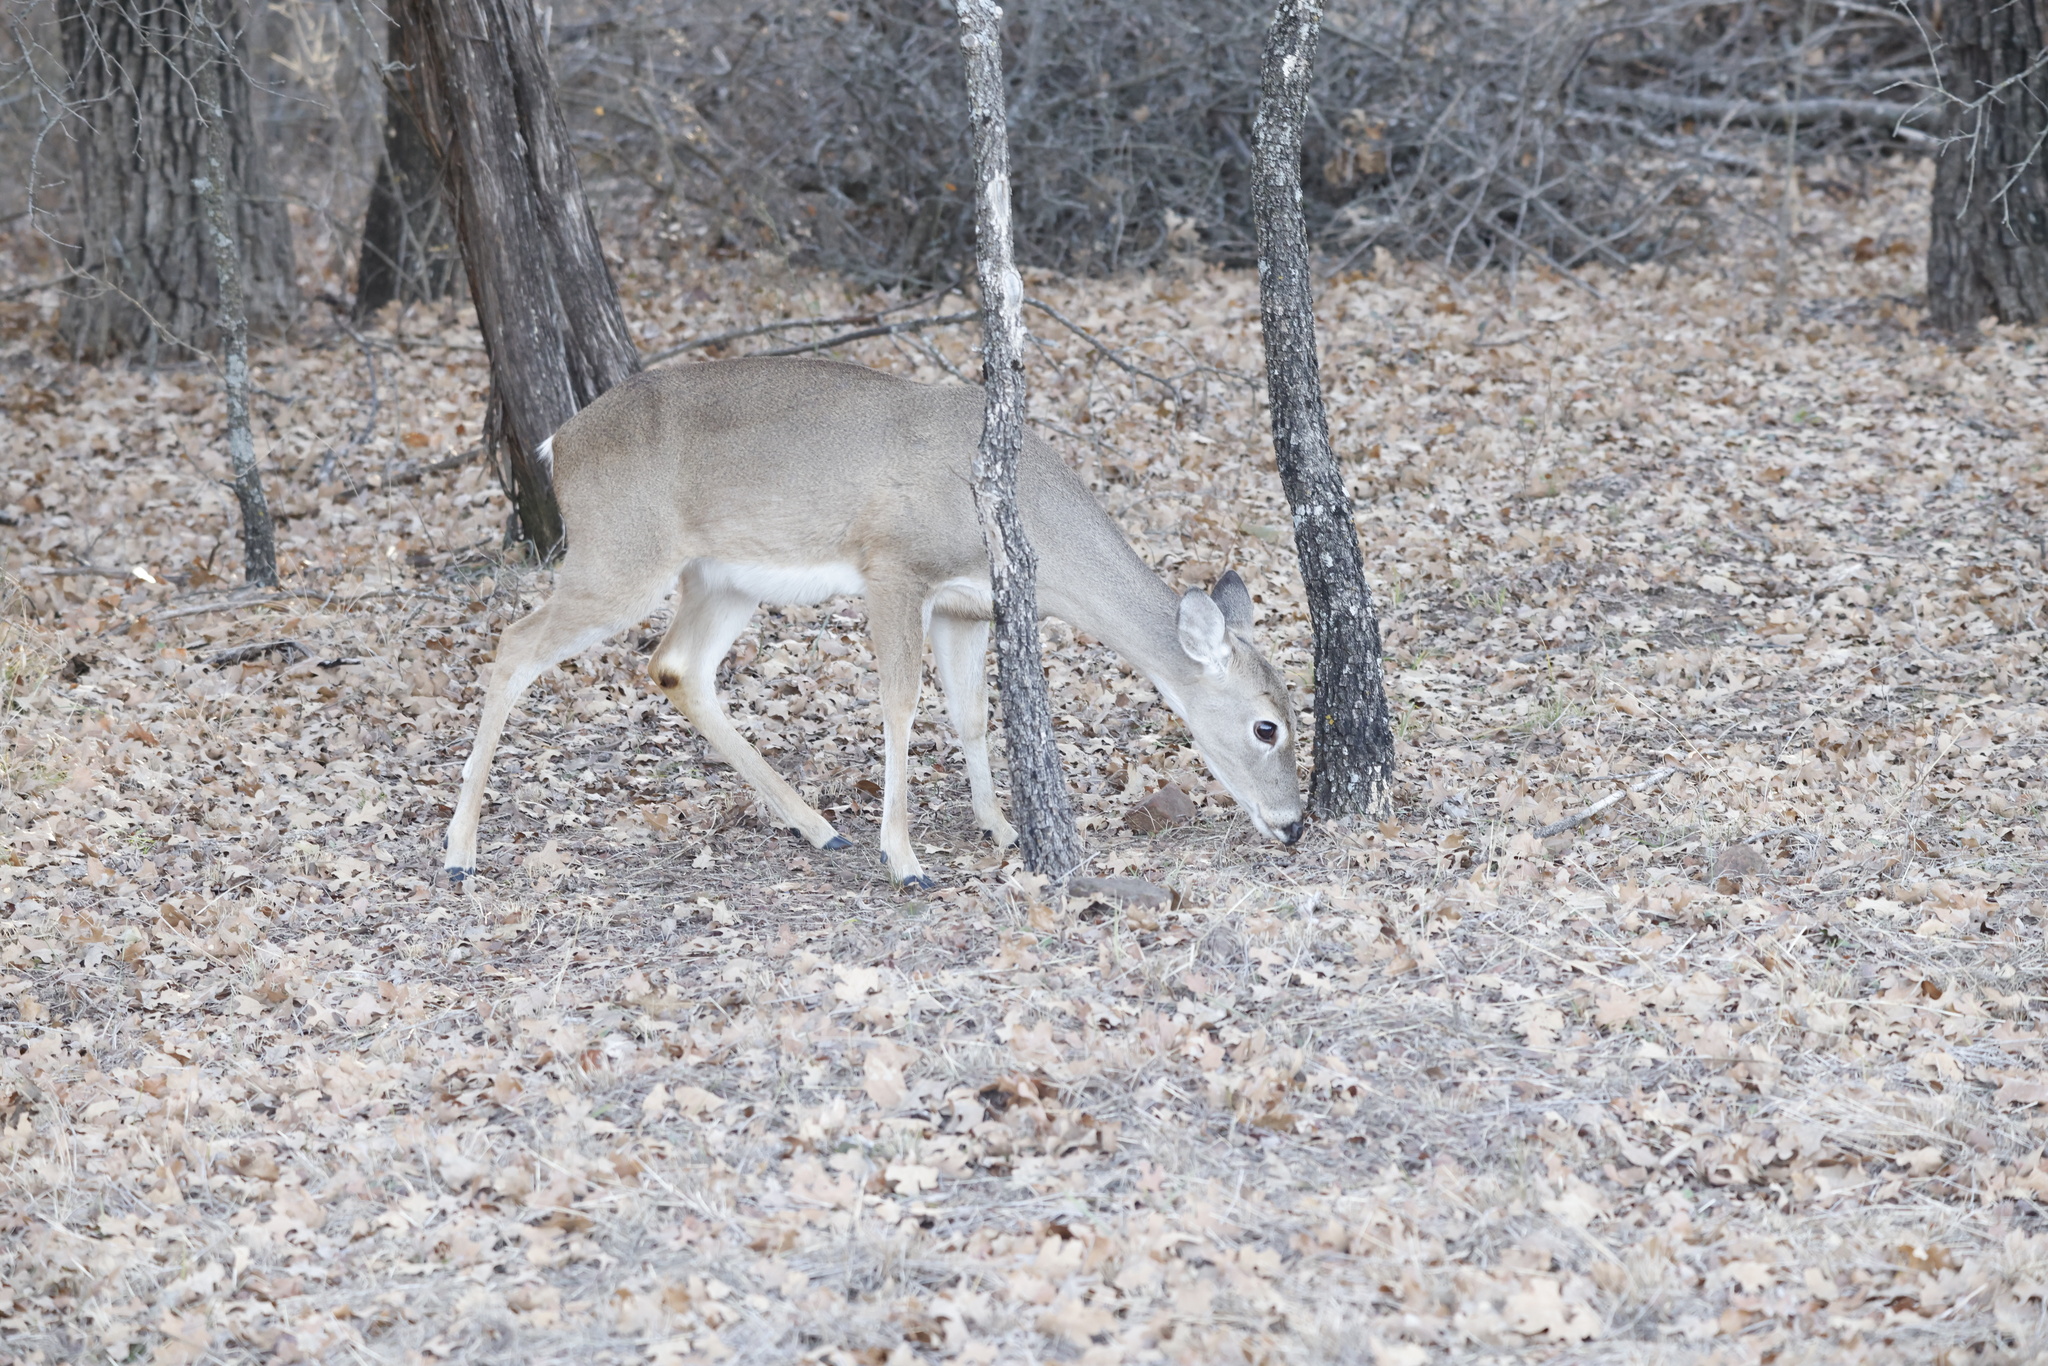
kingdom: Animalia
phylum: Chordata
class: Mammalia
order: Artiodactyla
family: Cervidae
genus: Odocoileus
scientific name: Odocoileus virginianus
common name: White-tailed deer
